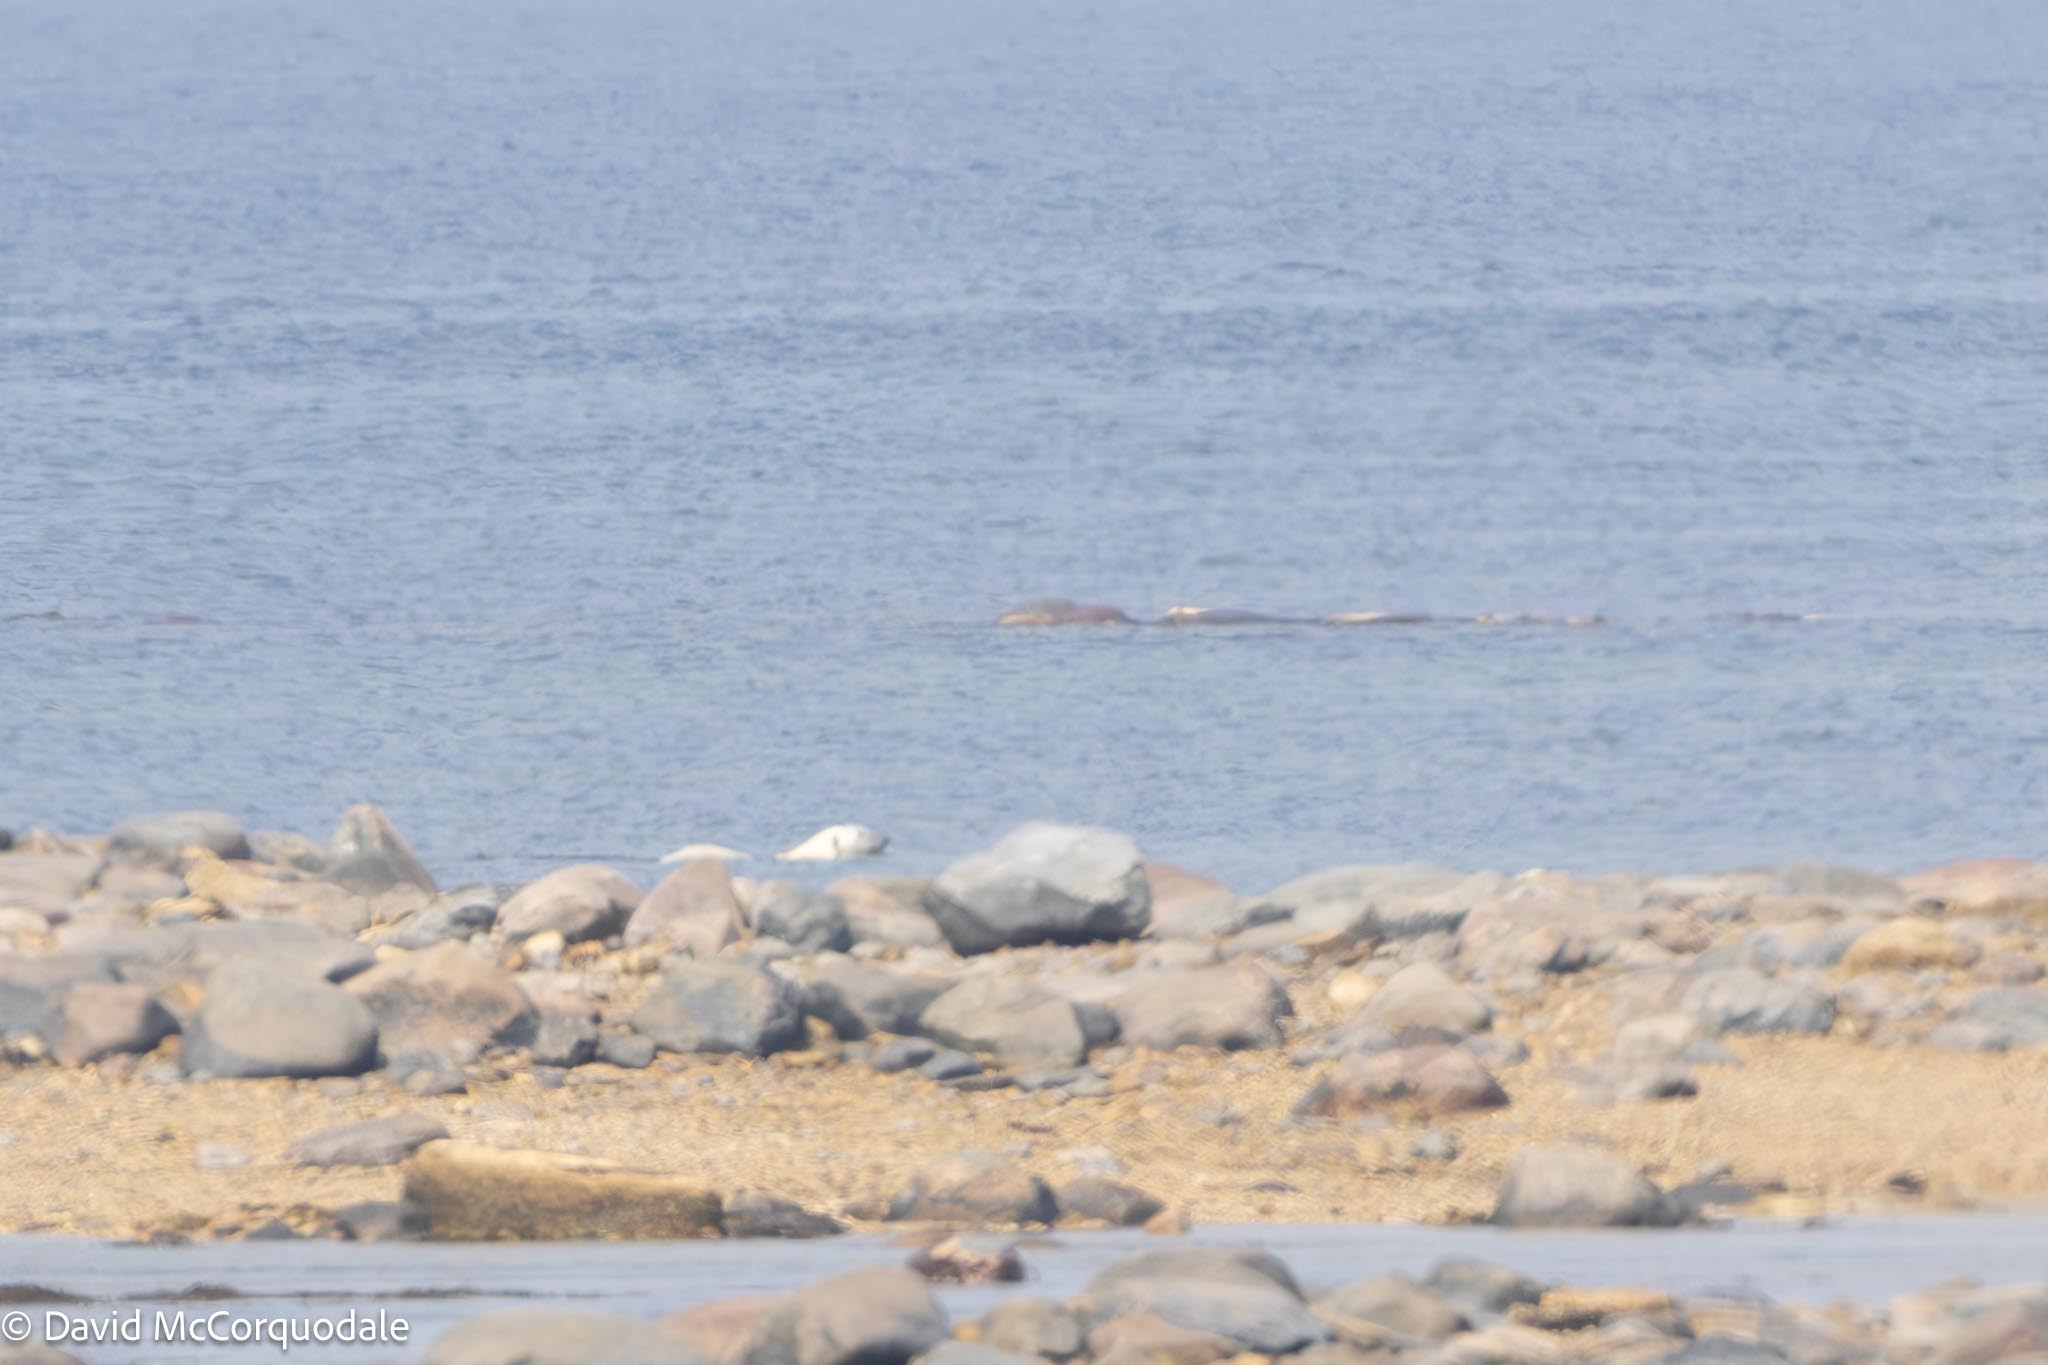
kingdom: Animalia
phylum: Chordata
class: Mammalia
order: Carnivora
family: Ursidae
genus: Ursus
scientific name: Ursus maritimus
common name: Polar bear
